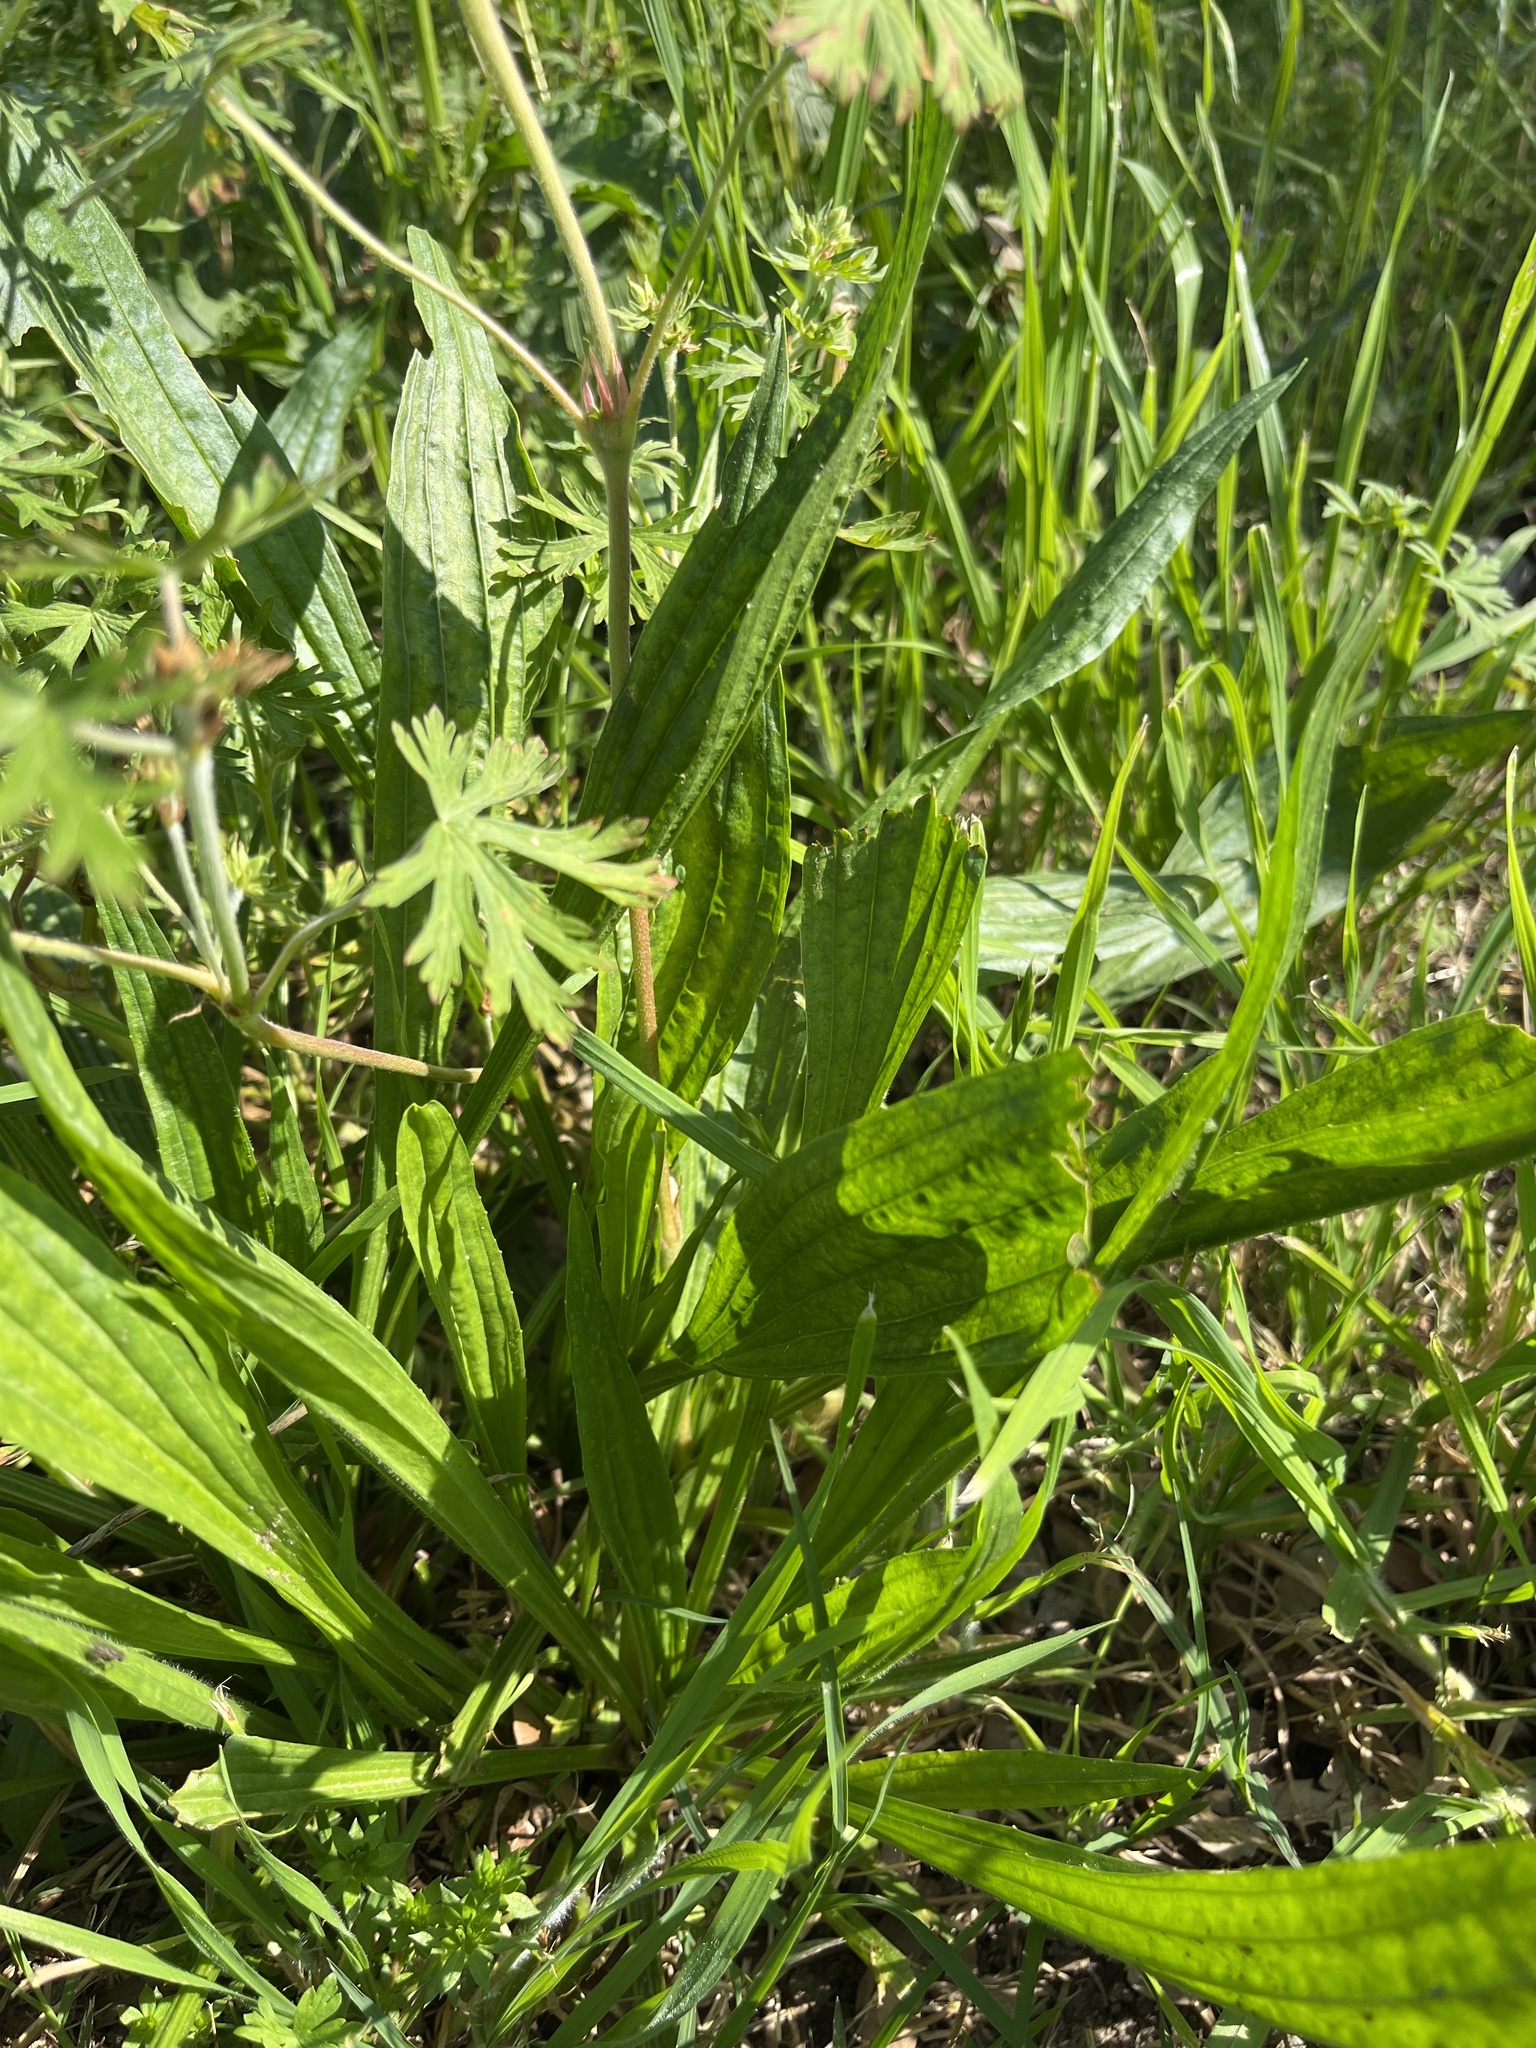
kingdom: Plantae
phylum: Tracheophyta
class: Magnoliopsida
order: Lamiales
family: Plantaginaceae
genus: Plantago
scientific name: Plantago lanceolata
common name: Ribwort plantain
